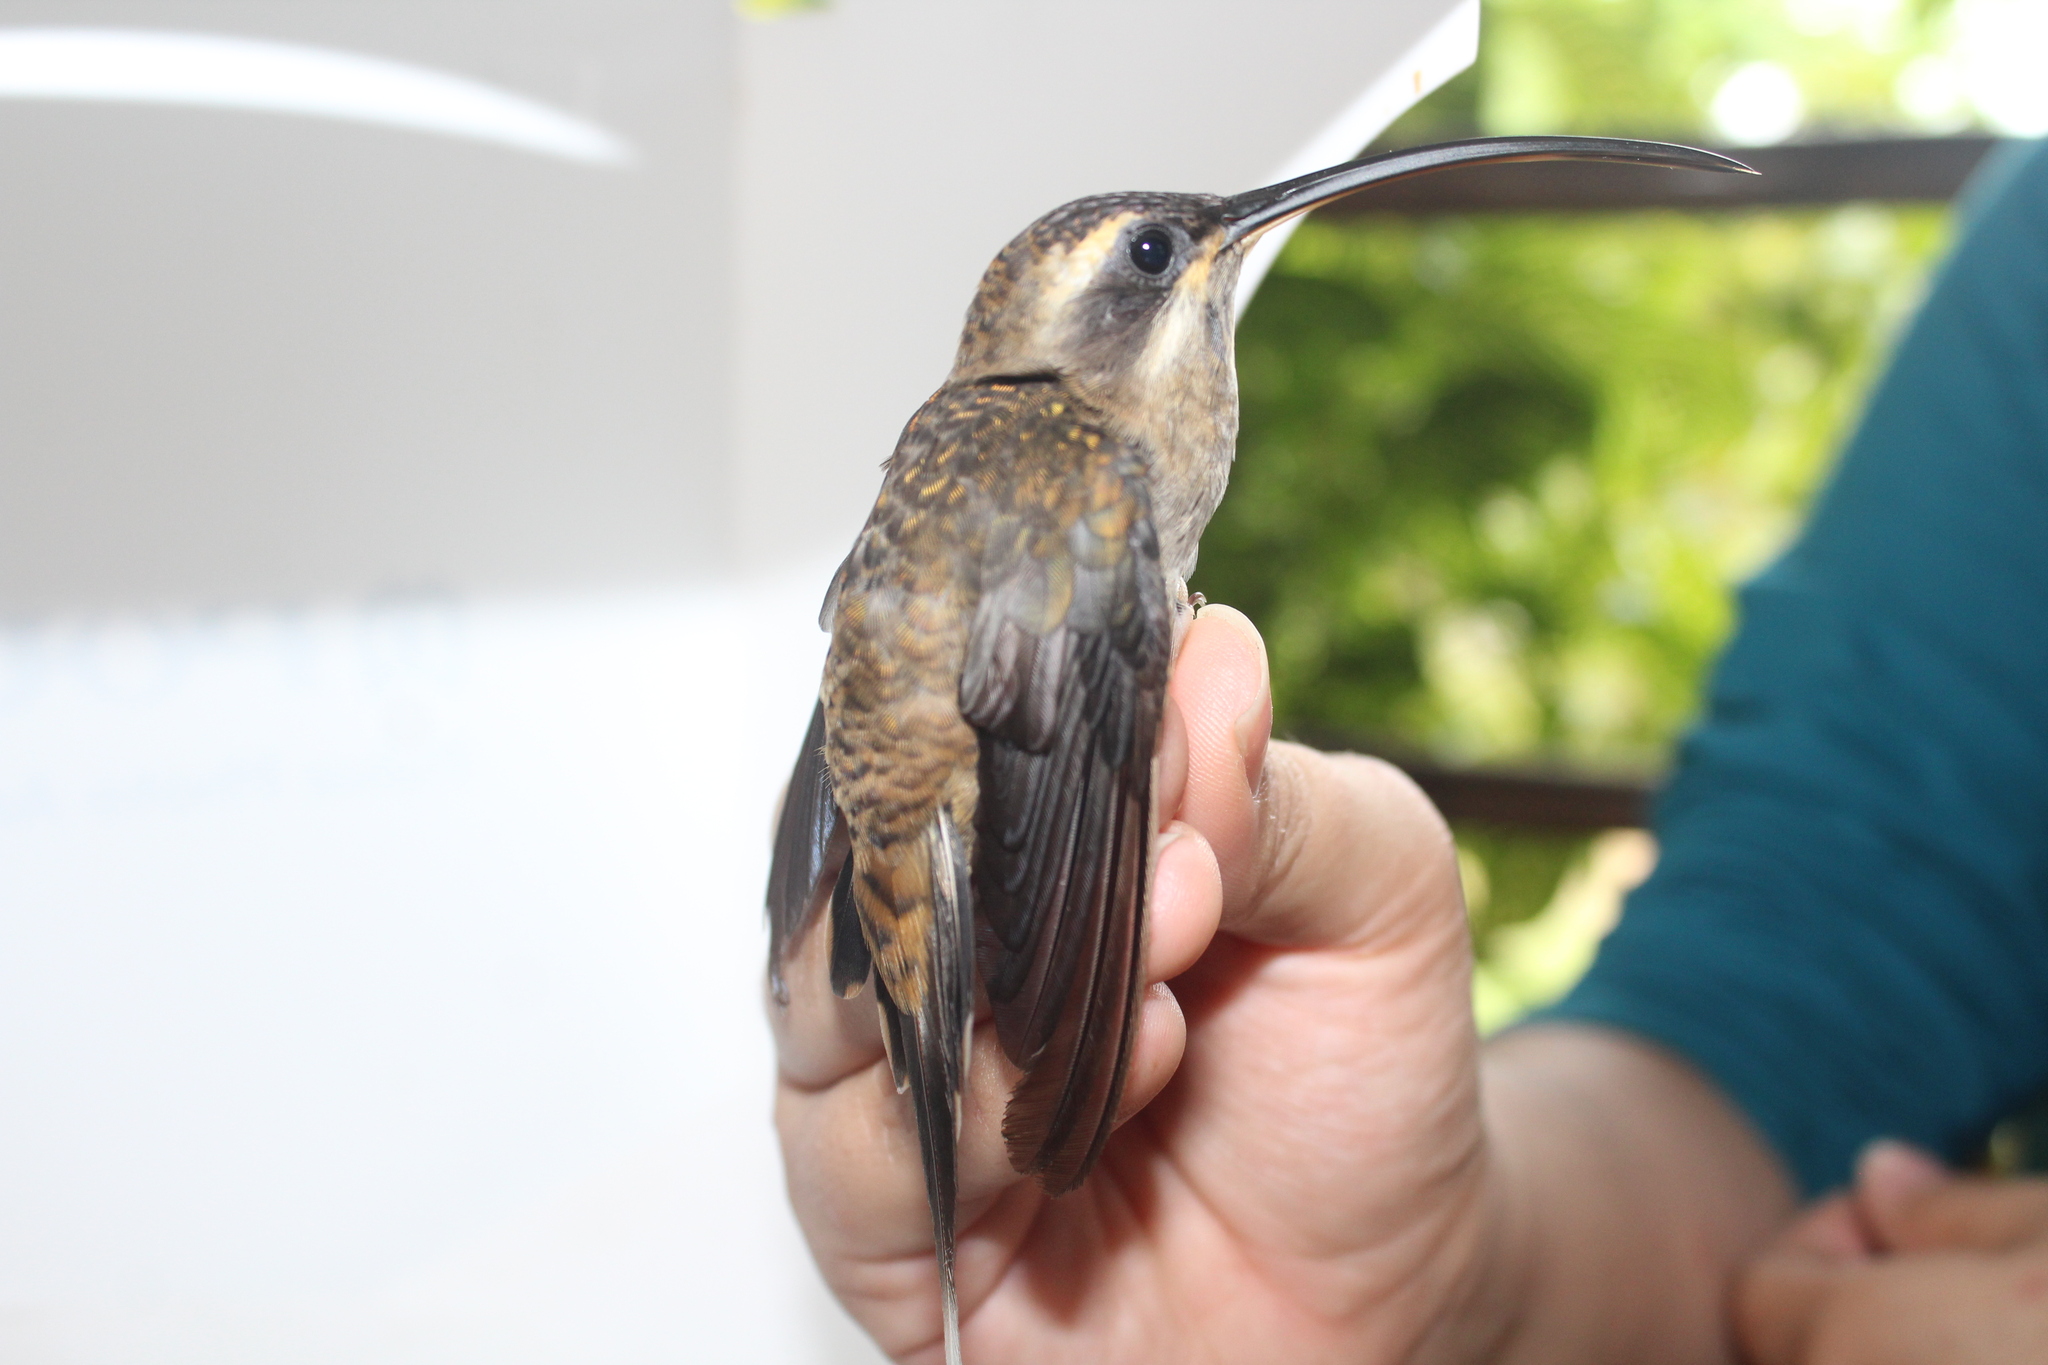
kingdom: Animalia
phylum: Chordata
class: Aves
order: Apodiformes
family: Trochilidae
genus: Phaethornis
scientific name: Phaethornis longirostris
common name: Long-billed hermit
